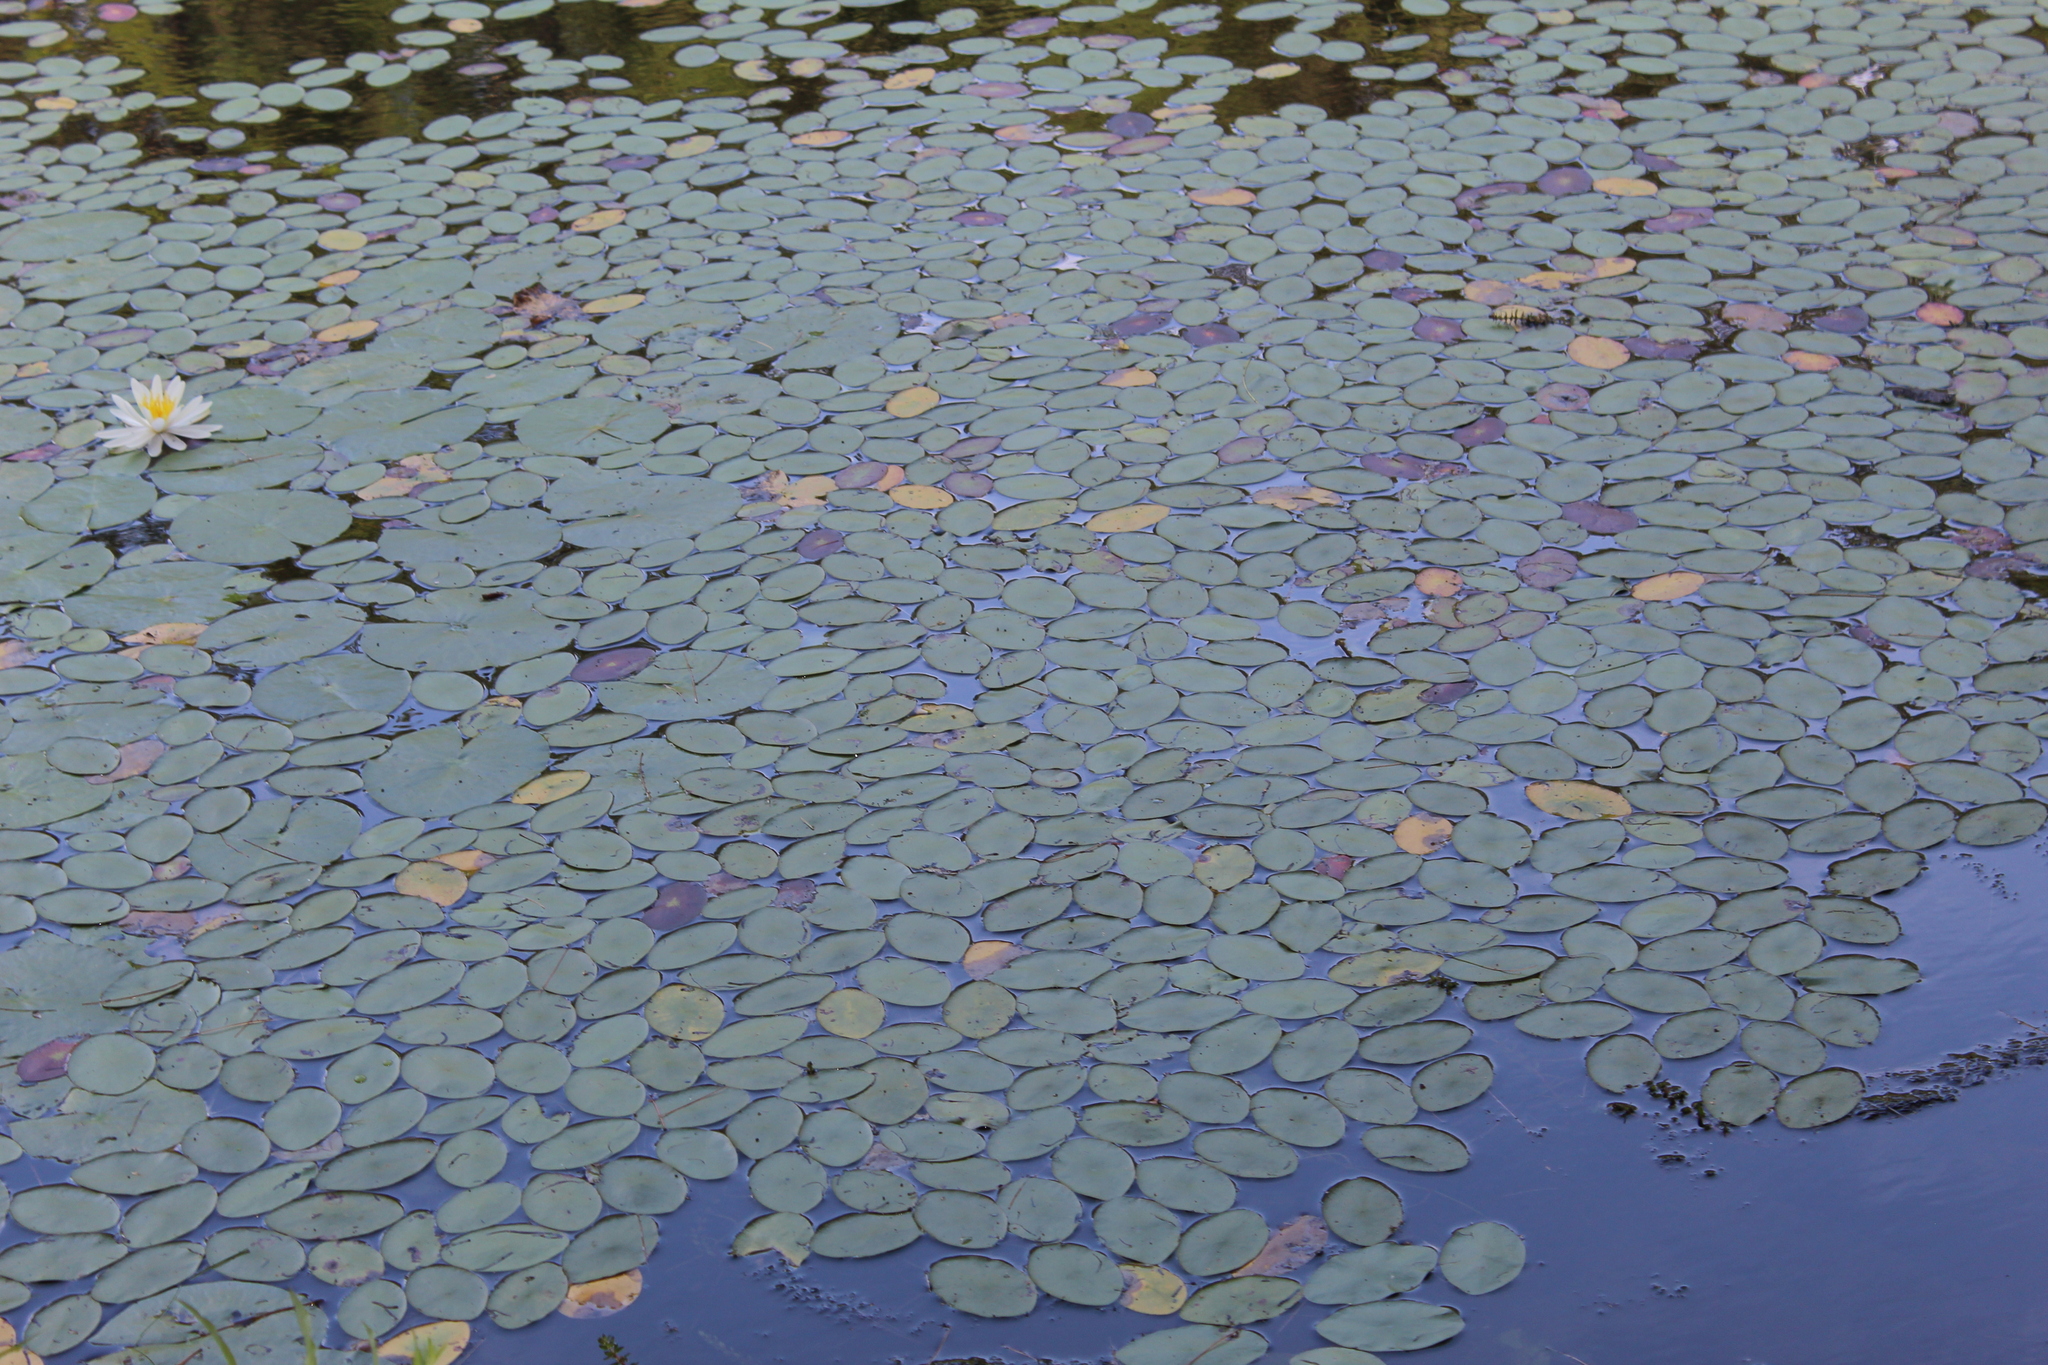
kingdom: Plantae
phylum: Tracheophyta
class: Magnoliopsida
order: Nymphaeales
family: Cabombaceae
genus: Brasenia
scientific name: Brasenia schreberi
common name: Water-shield
